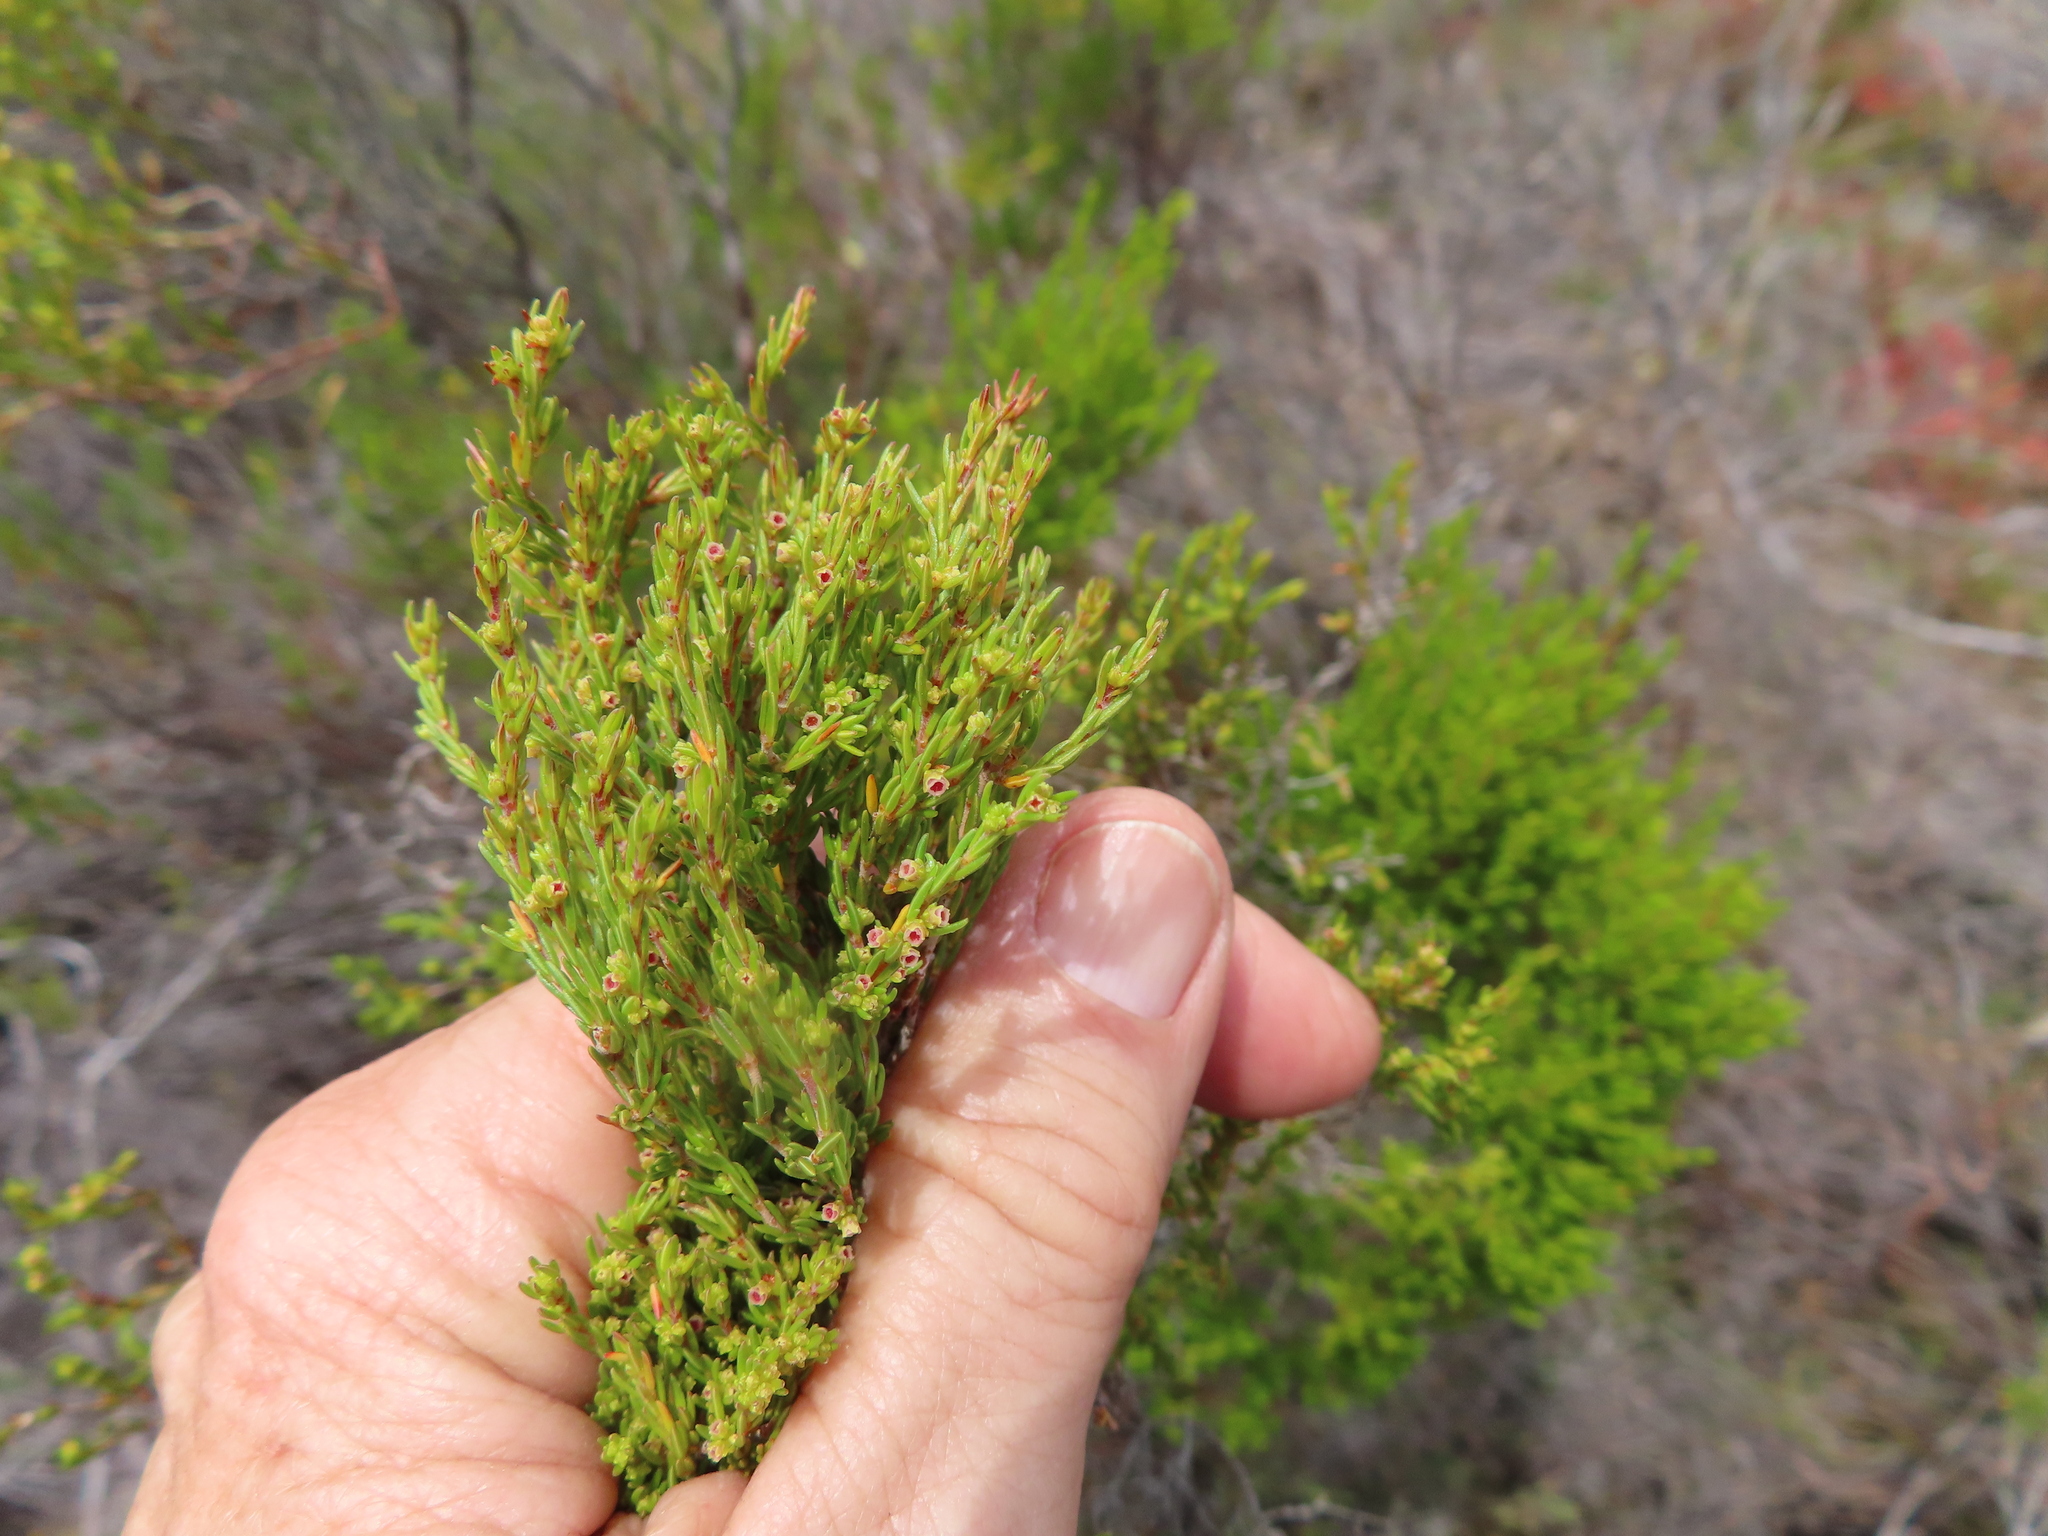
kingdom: Plantae
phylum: Tracheophyta
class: Magnoliopsida
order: Ericales
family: Ericaceae
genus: Erica
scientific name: Erica axillaris
